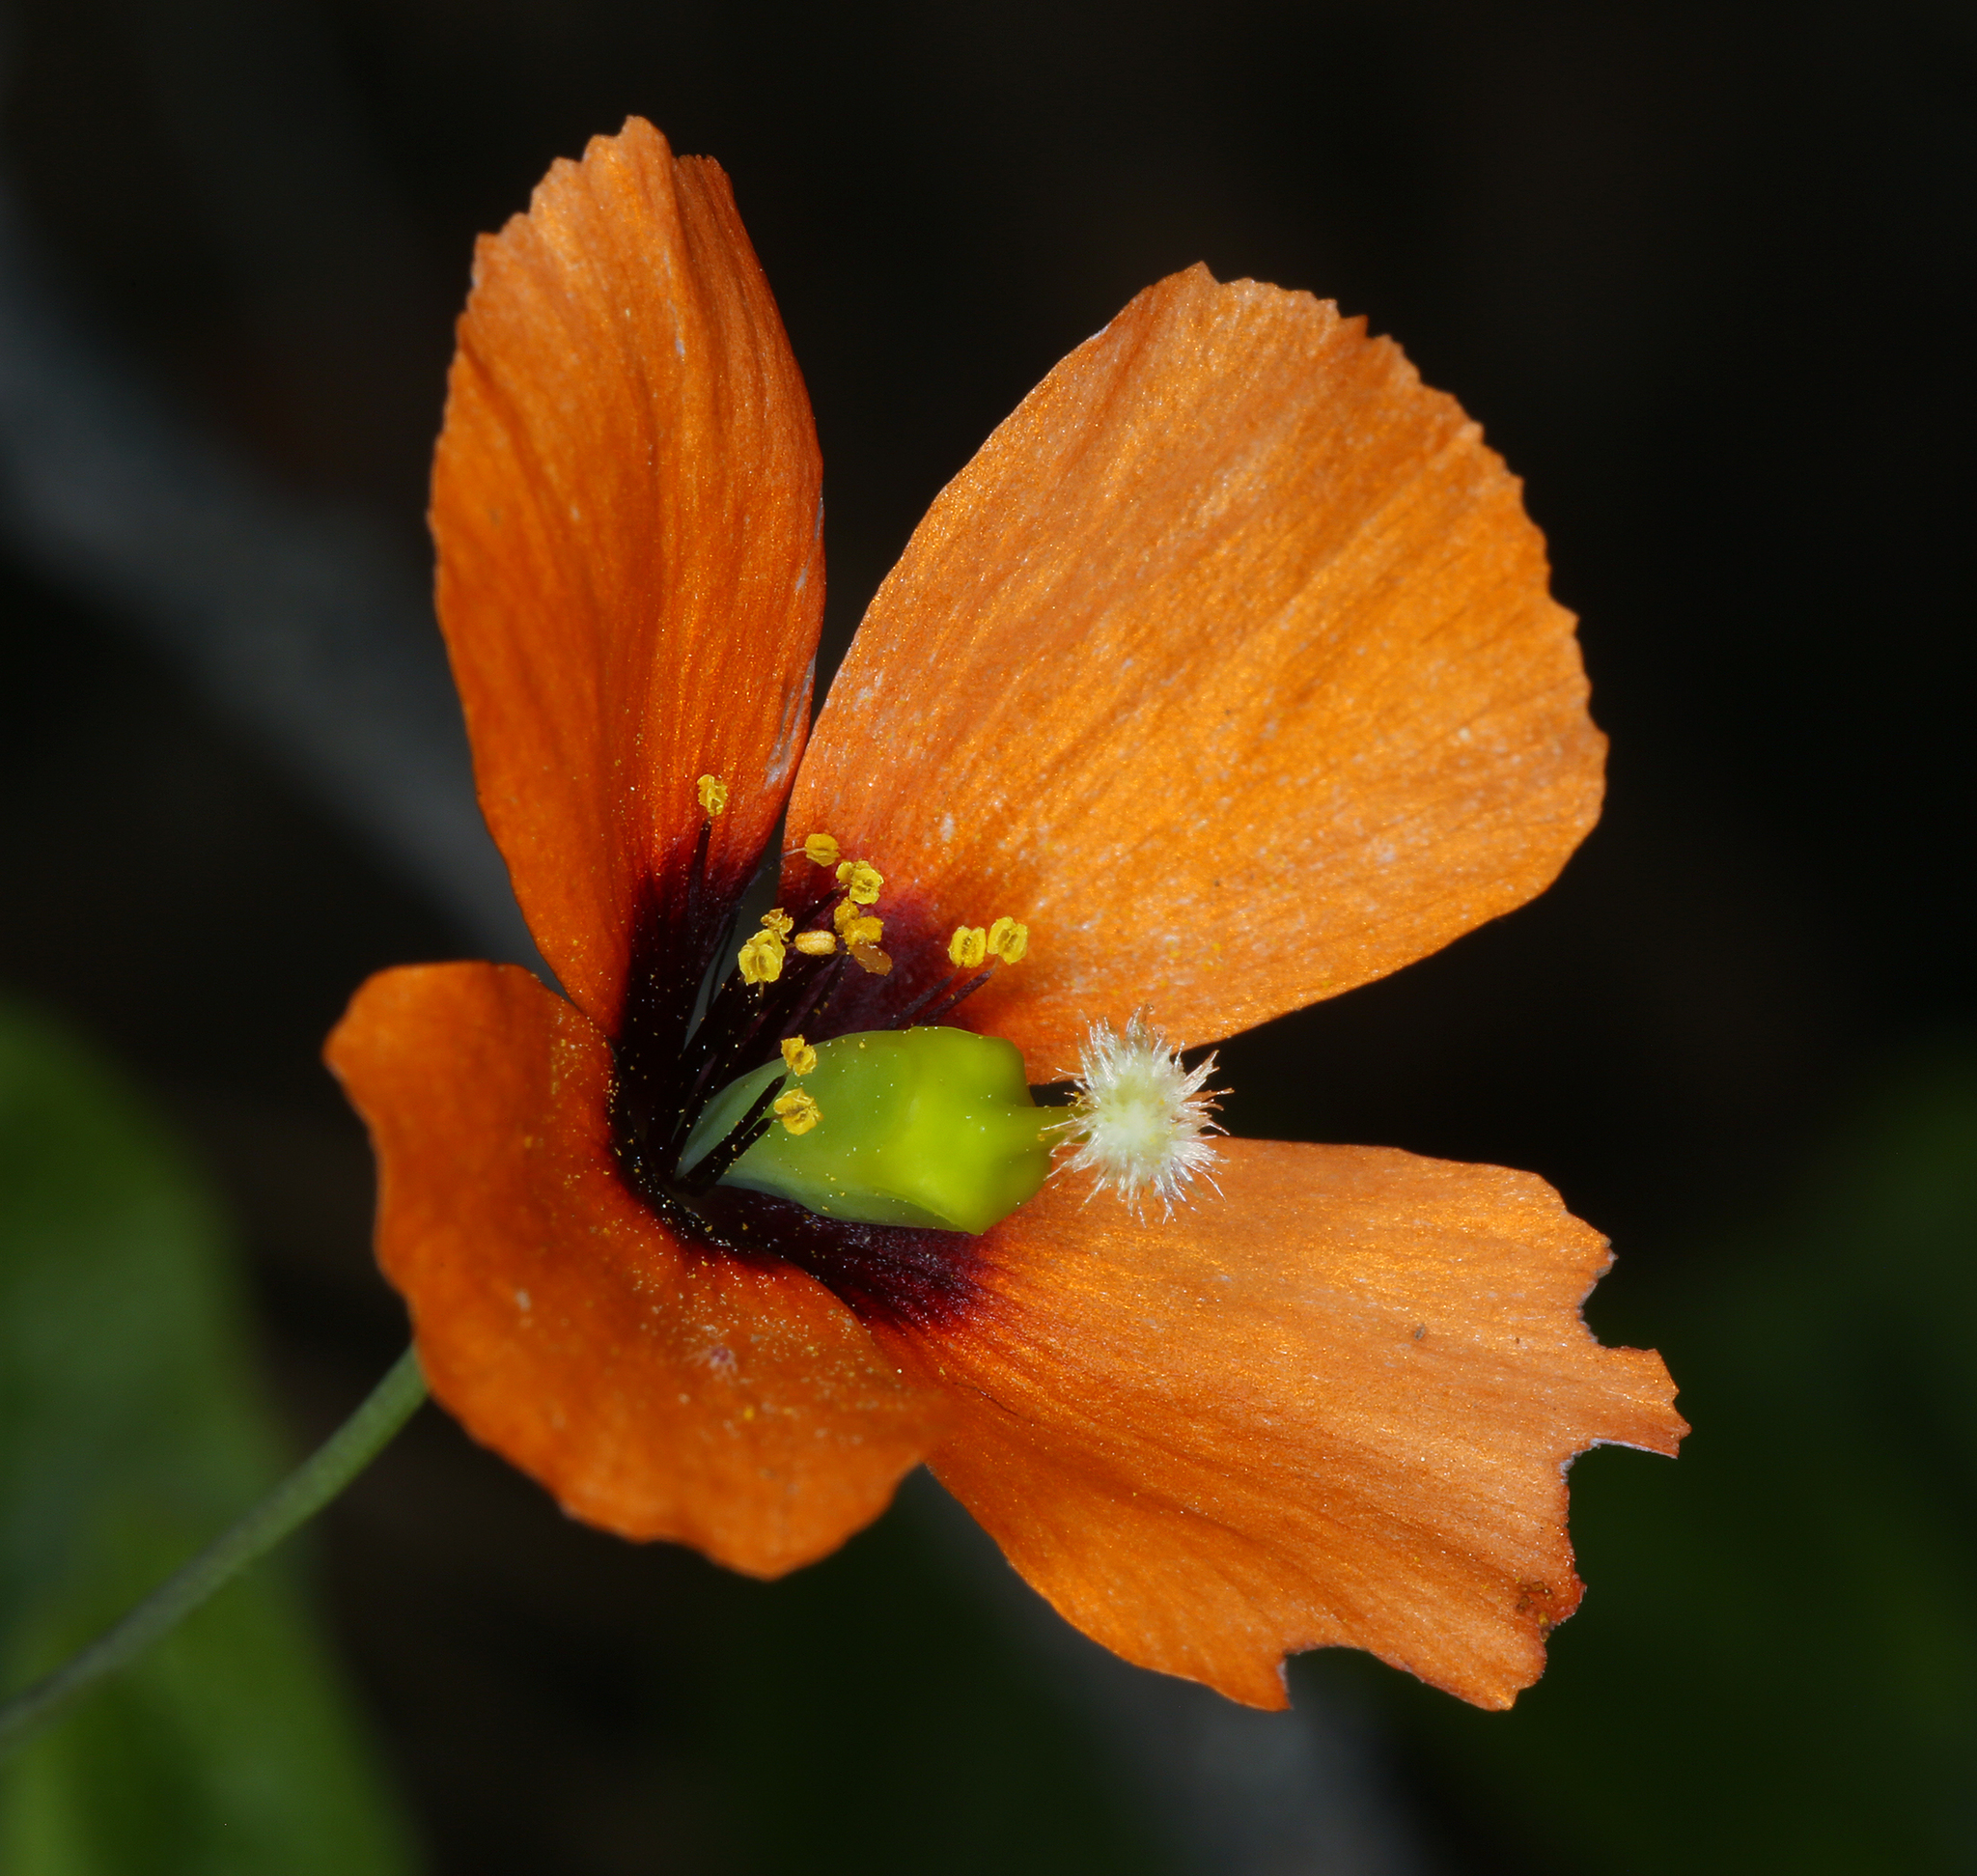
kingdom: Plantae
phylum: Tracheophyta
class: Magnoliopsida
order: Ranunculales
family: Papaveraceae
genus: Stylomecon
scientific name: Stylomecon heterophylla
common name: Flaming-poppy
